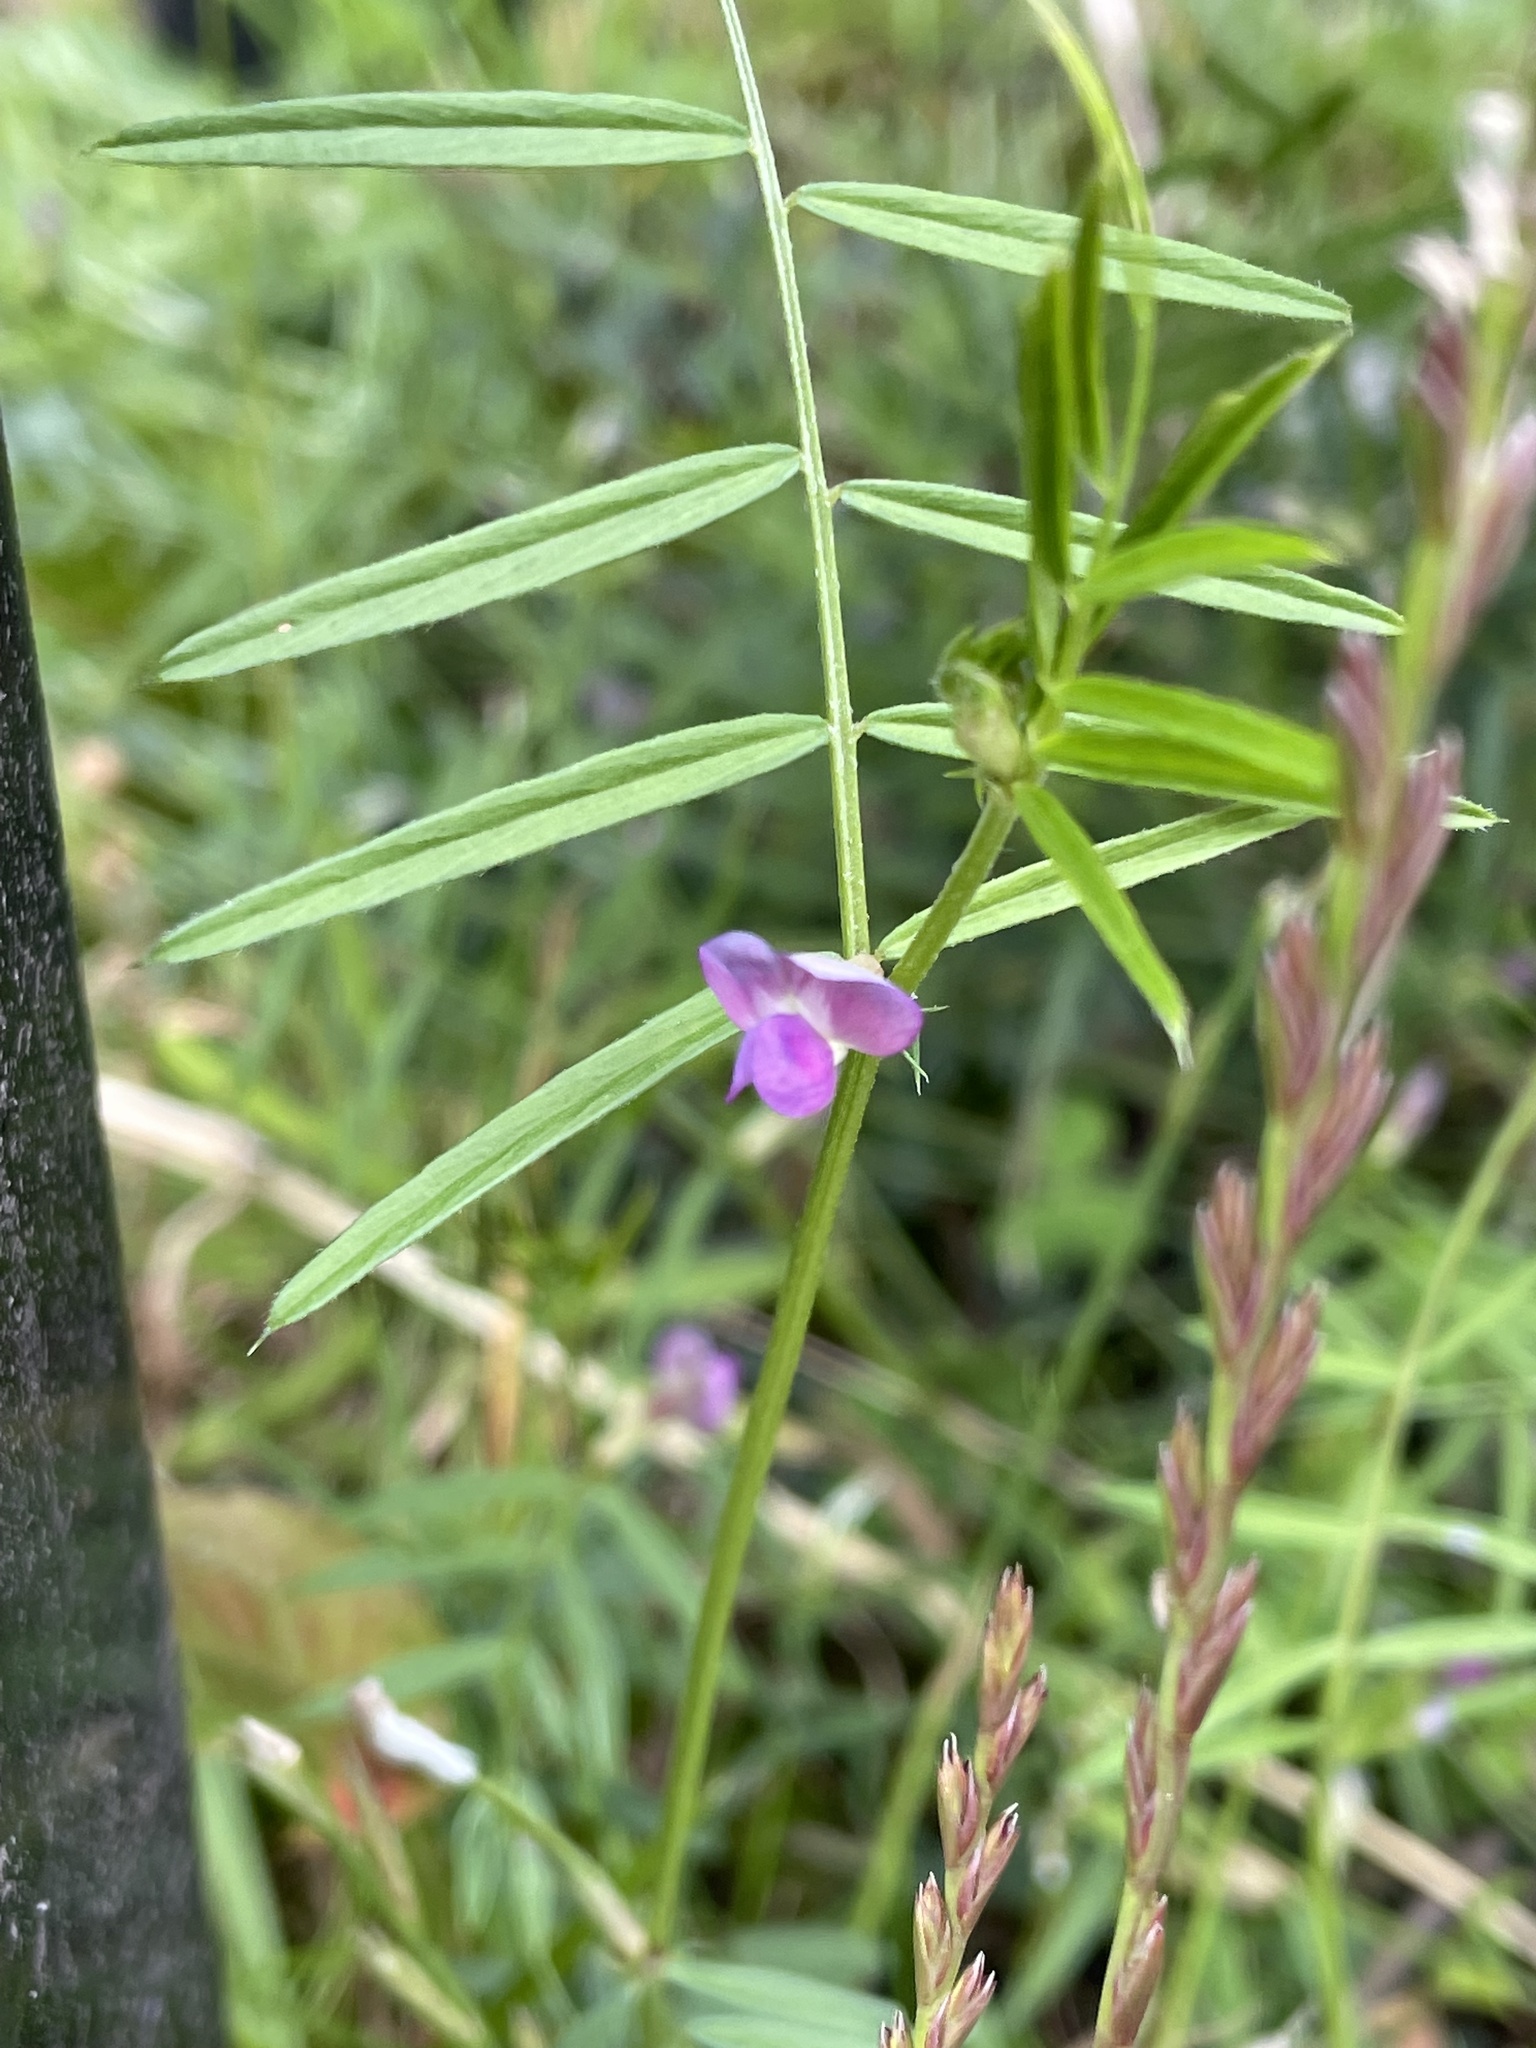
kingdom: Plantae
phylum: Tracheophyta
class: Magnoliopsida
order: Fabales
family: Fabaceae
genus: Vicia
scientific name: Vicia sativa
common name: Garden vetch
